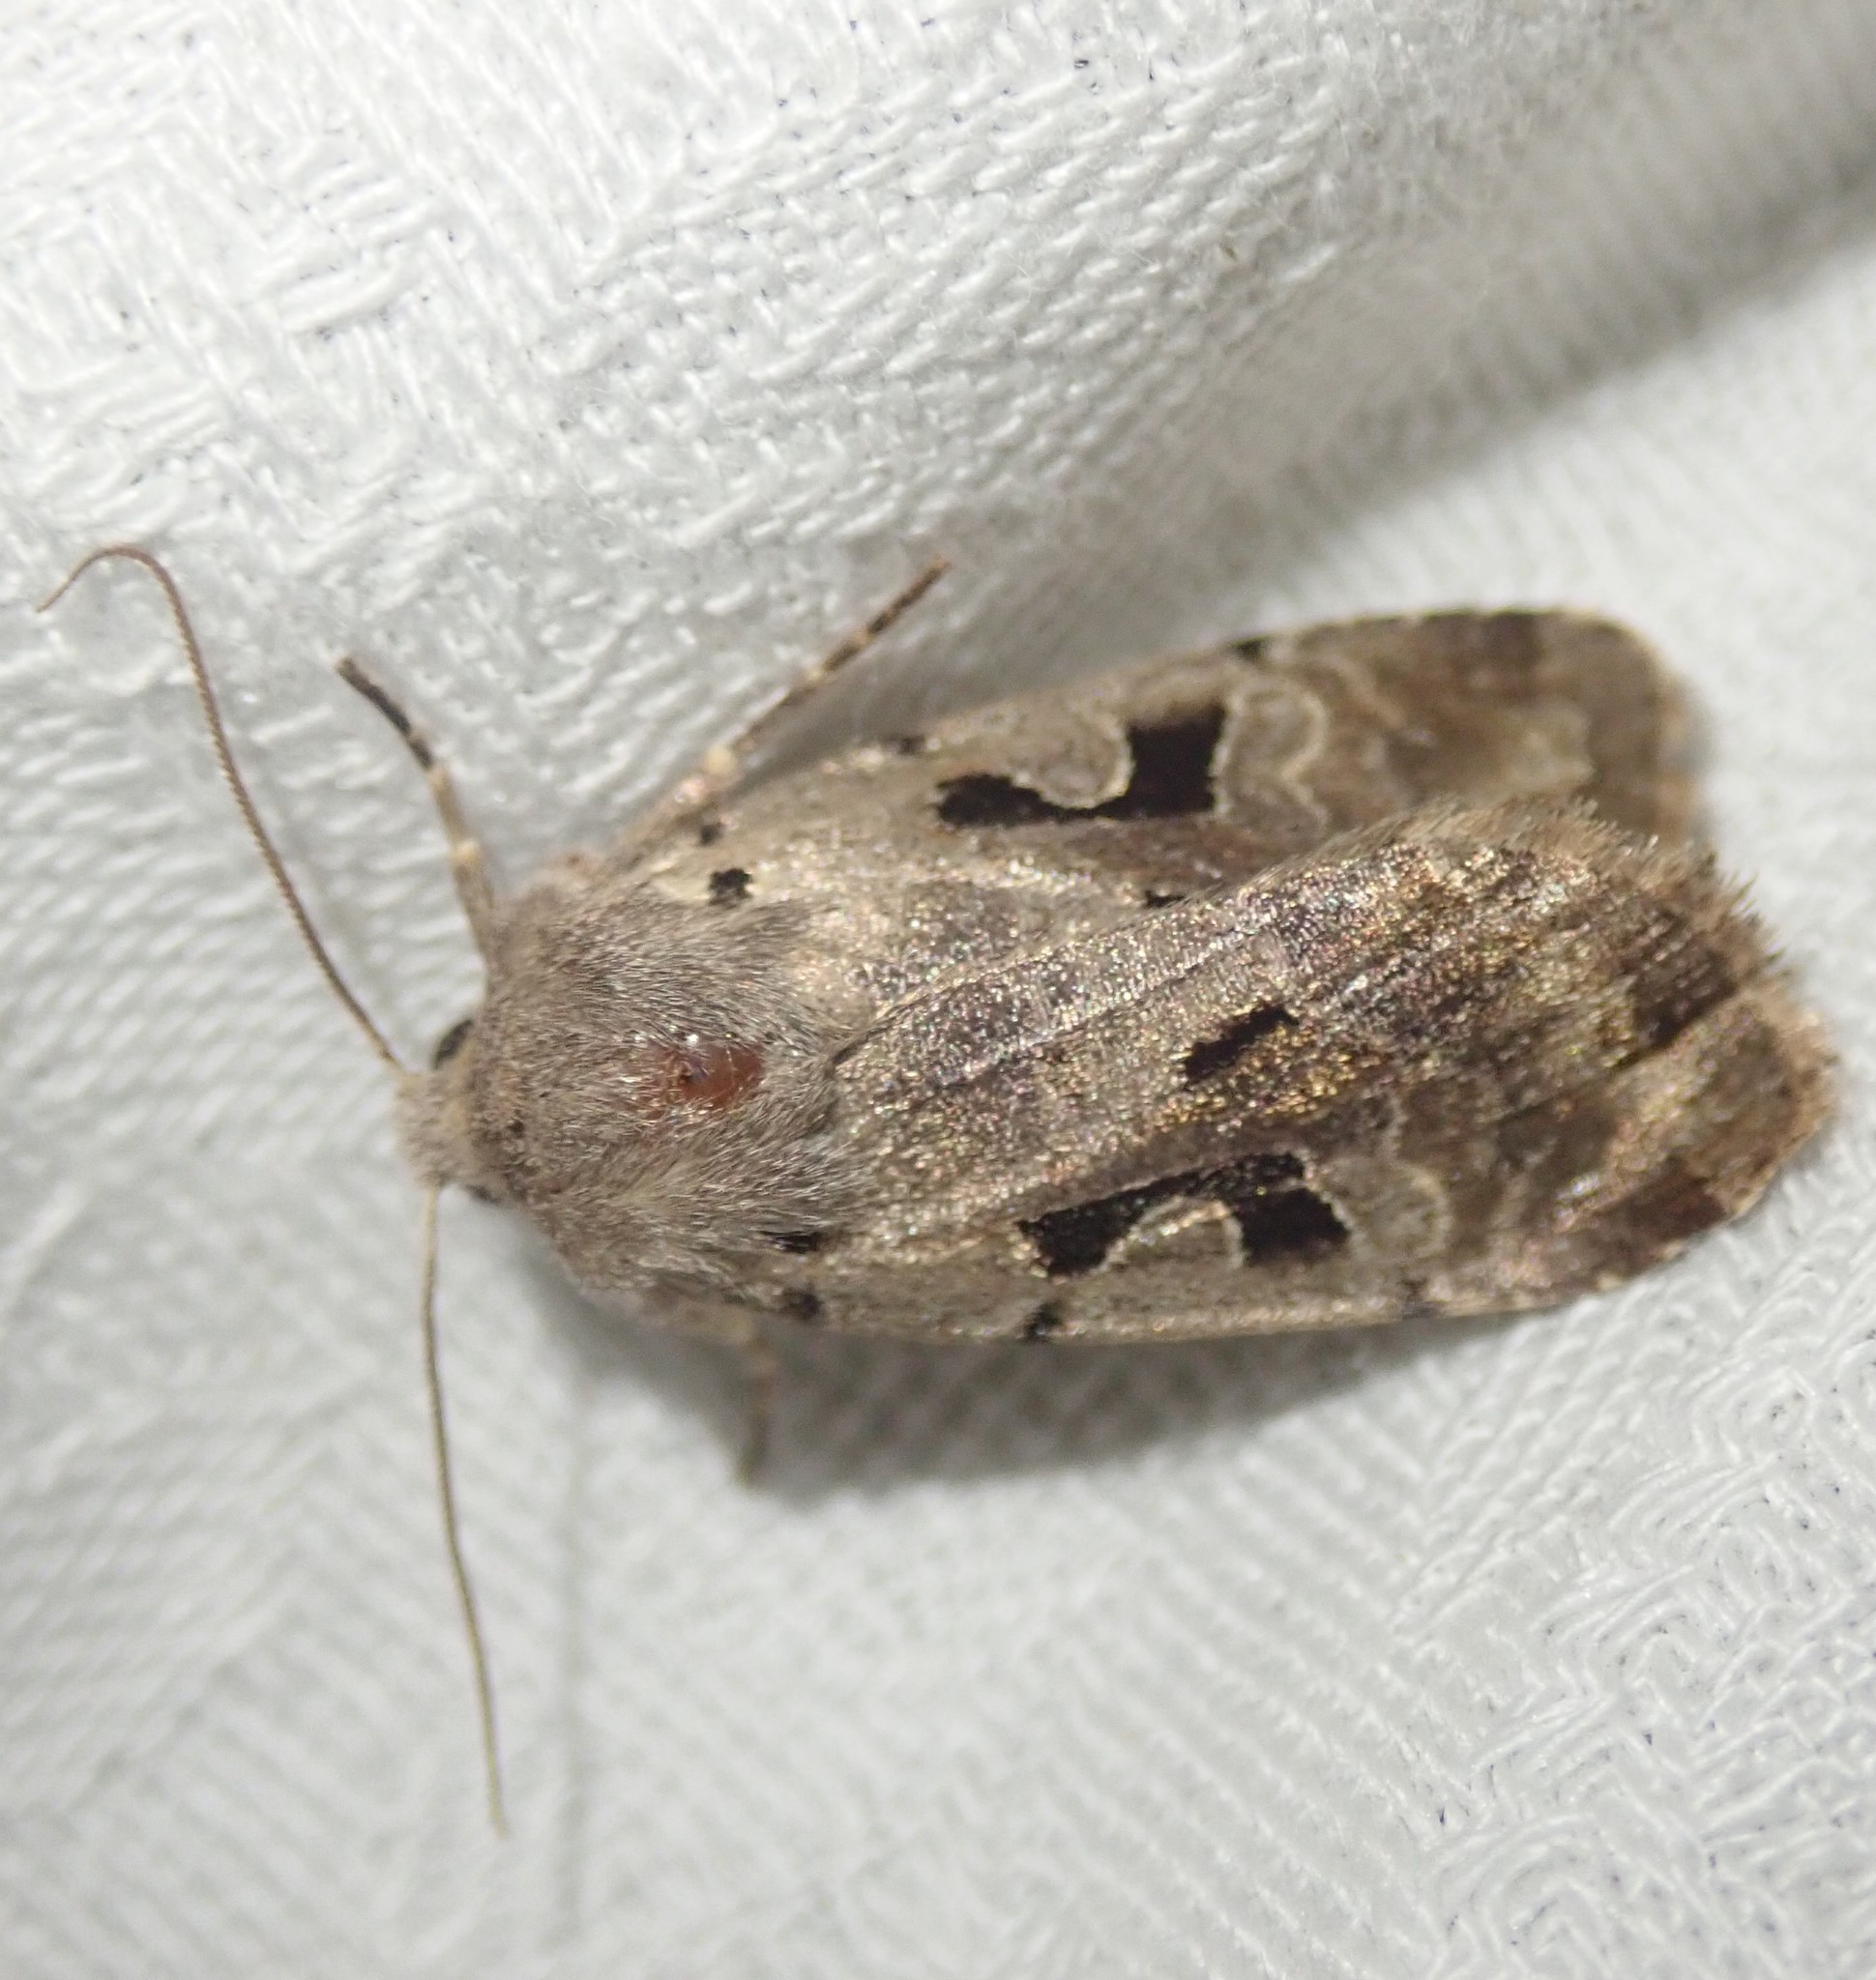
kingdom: Animalia
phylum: Arthropoda
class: Insecta
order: Lepidoptera
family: Noctuidae
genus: Orthosia
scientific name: Orthosia gothica
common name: Hebrew character
